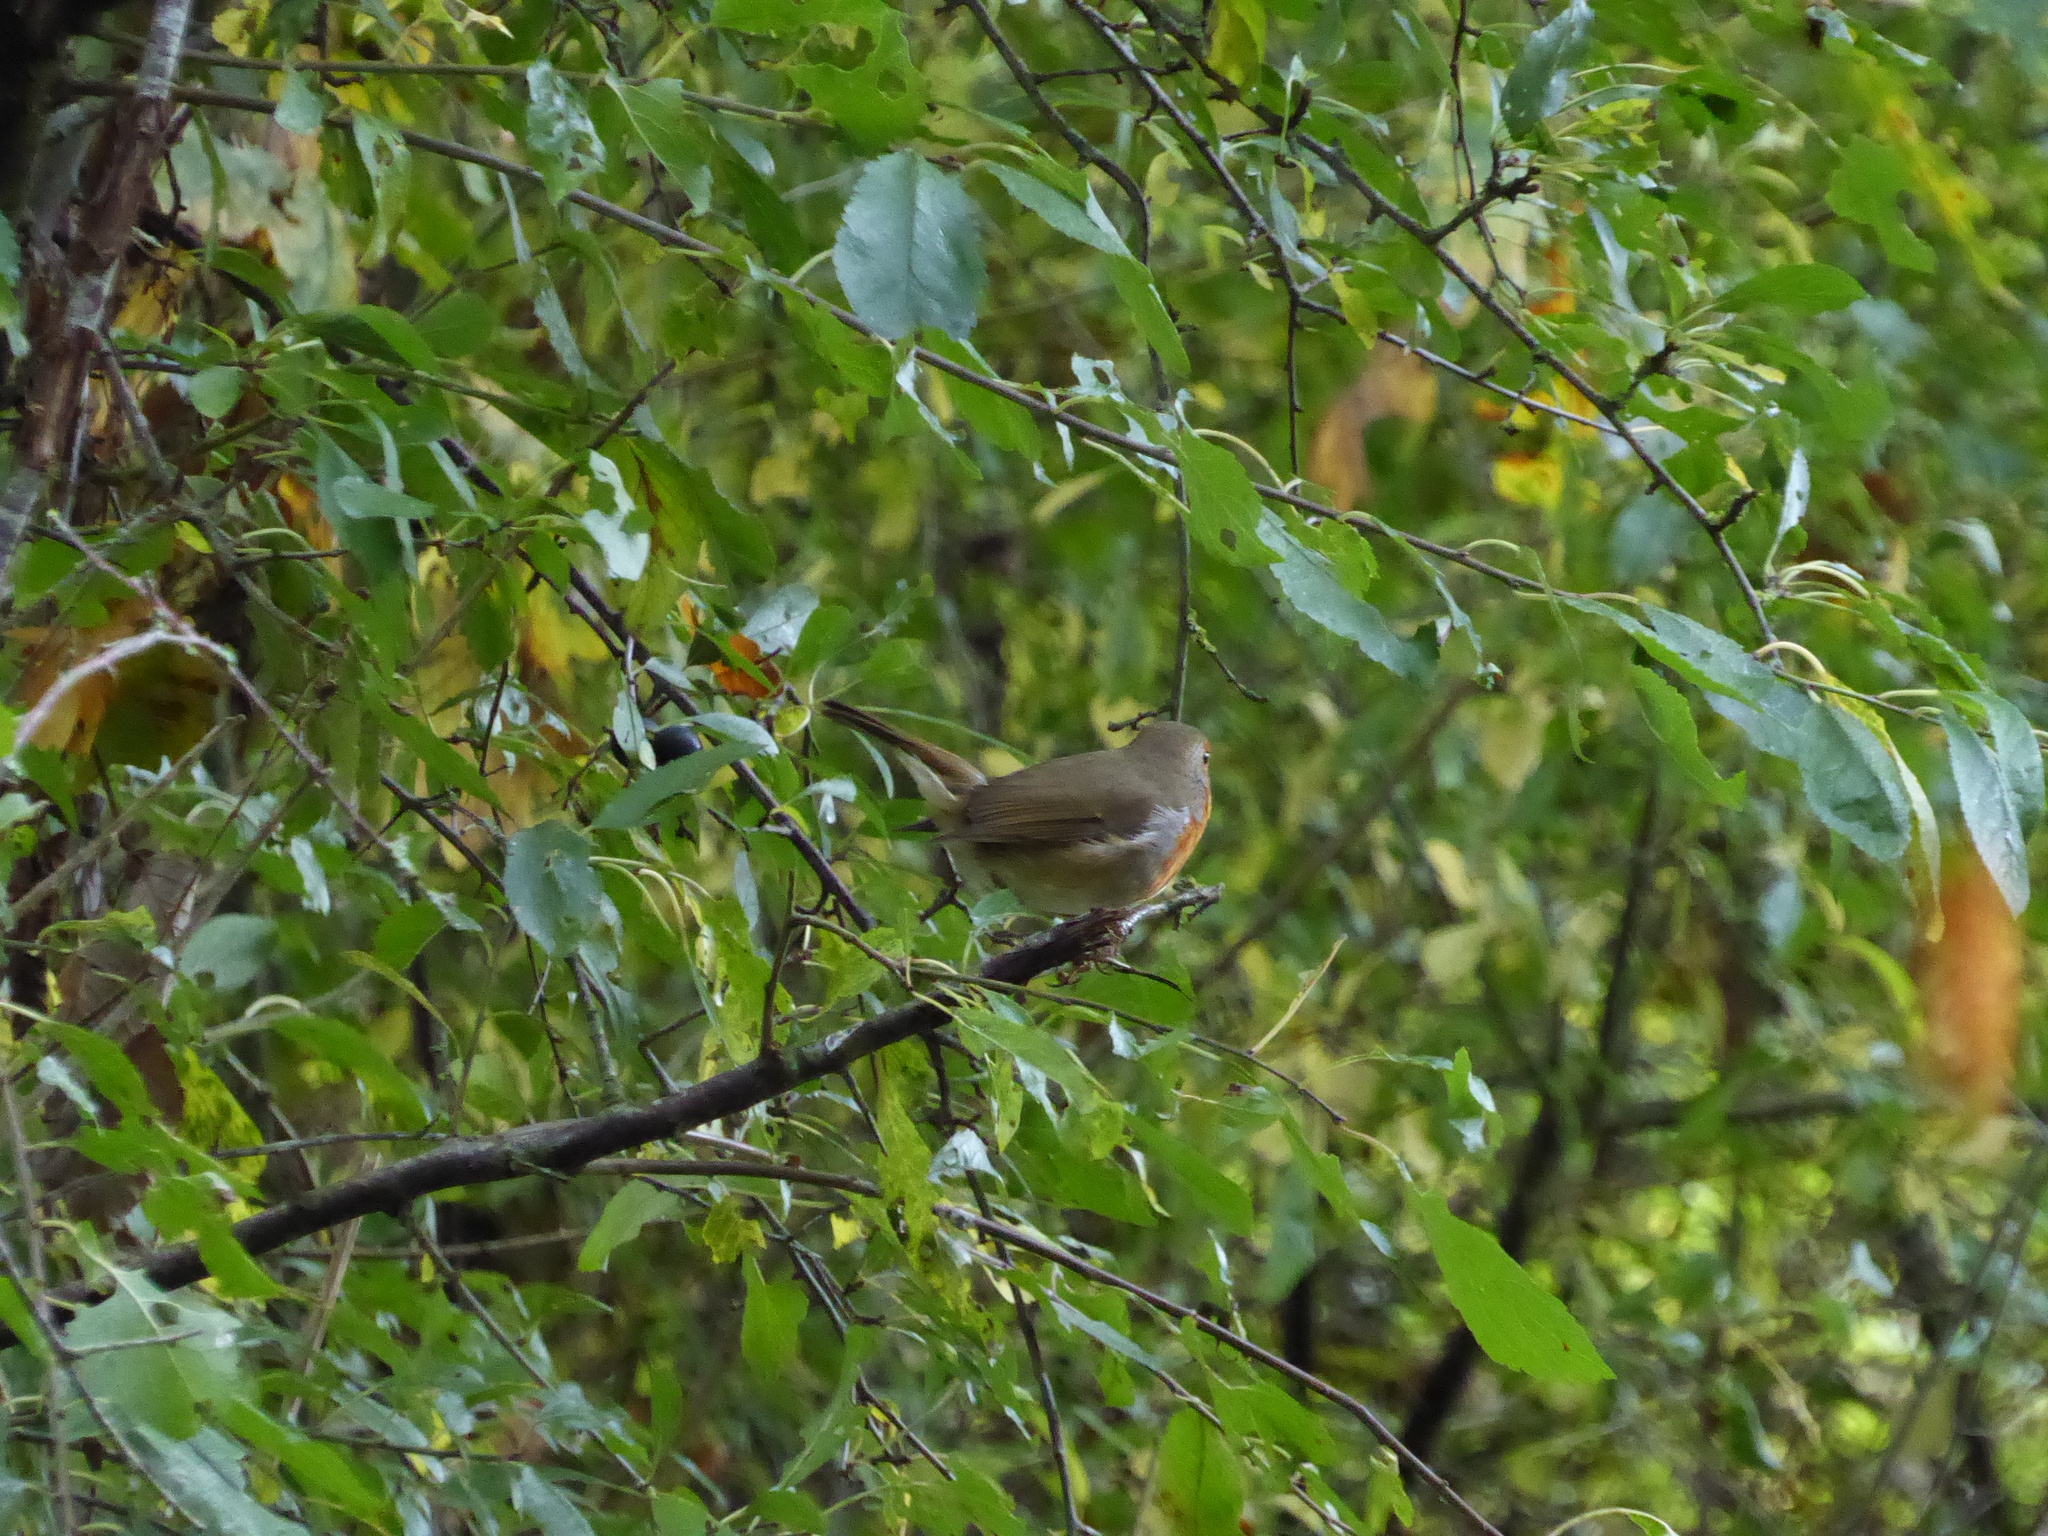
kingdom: Animalia
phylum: Chordata
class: Aves
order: Passeriformes
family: Muscicapidae
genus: Erithacus
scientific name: Erithacus rubecula
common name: European robin
